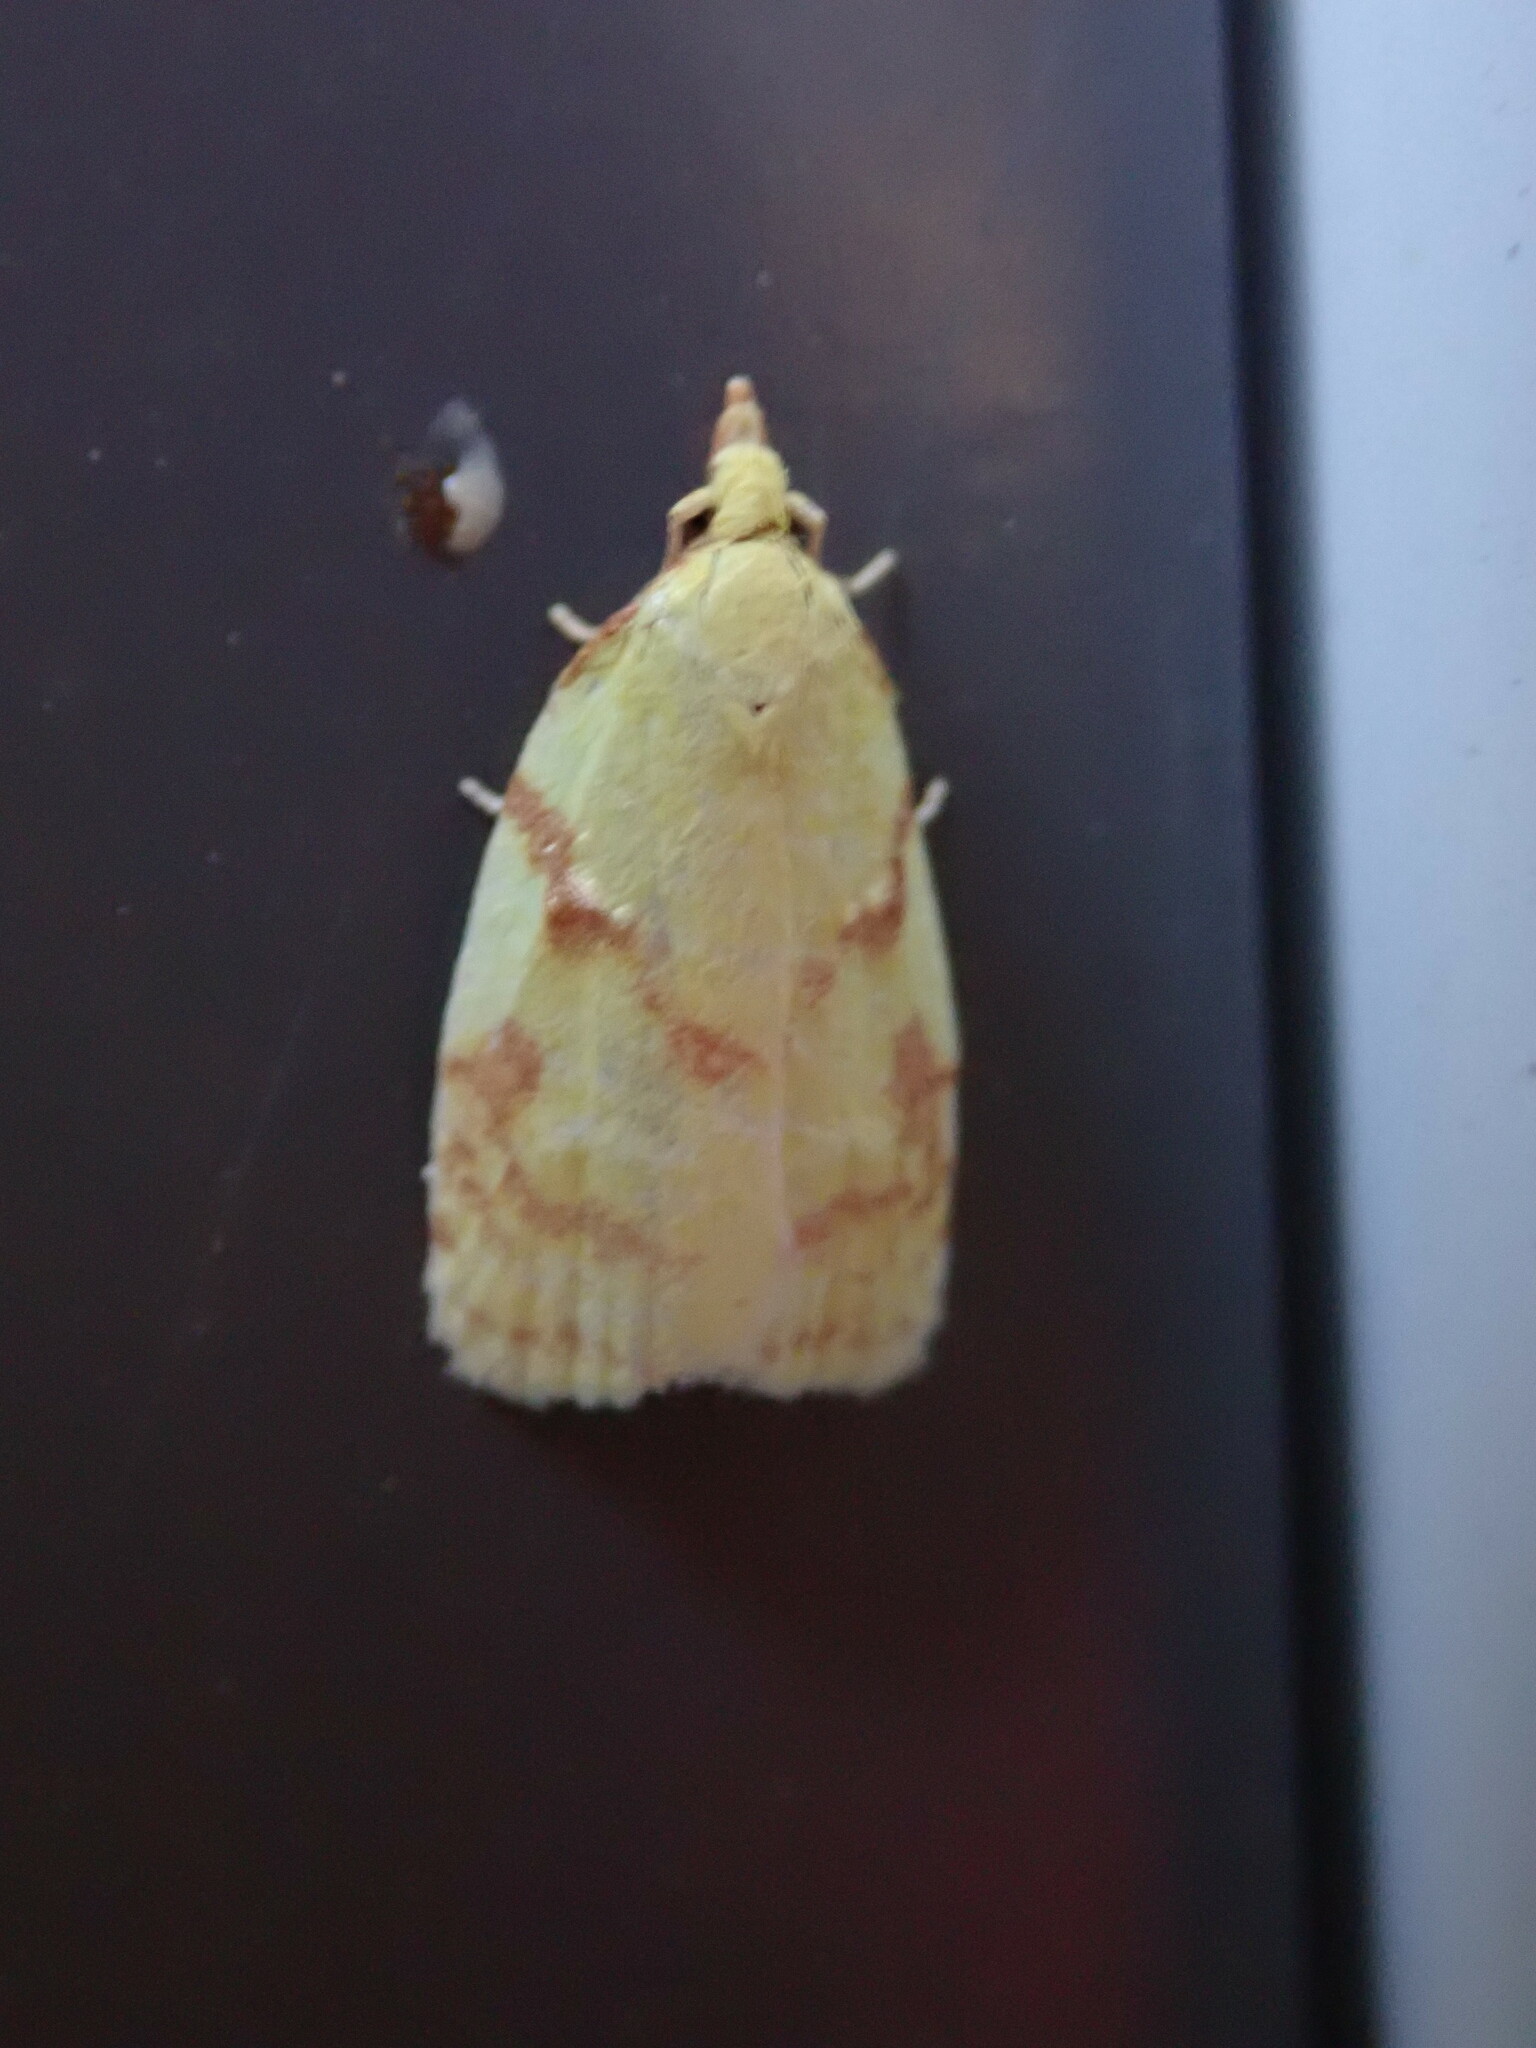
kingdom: Animalia
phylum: Arthropoda
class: Insecta
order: Lepidoptera
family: Tortricidae
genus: Cenopis
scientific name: Cenopis pettitana
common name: Maple-basswood leafroller moth
